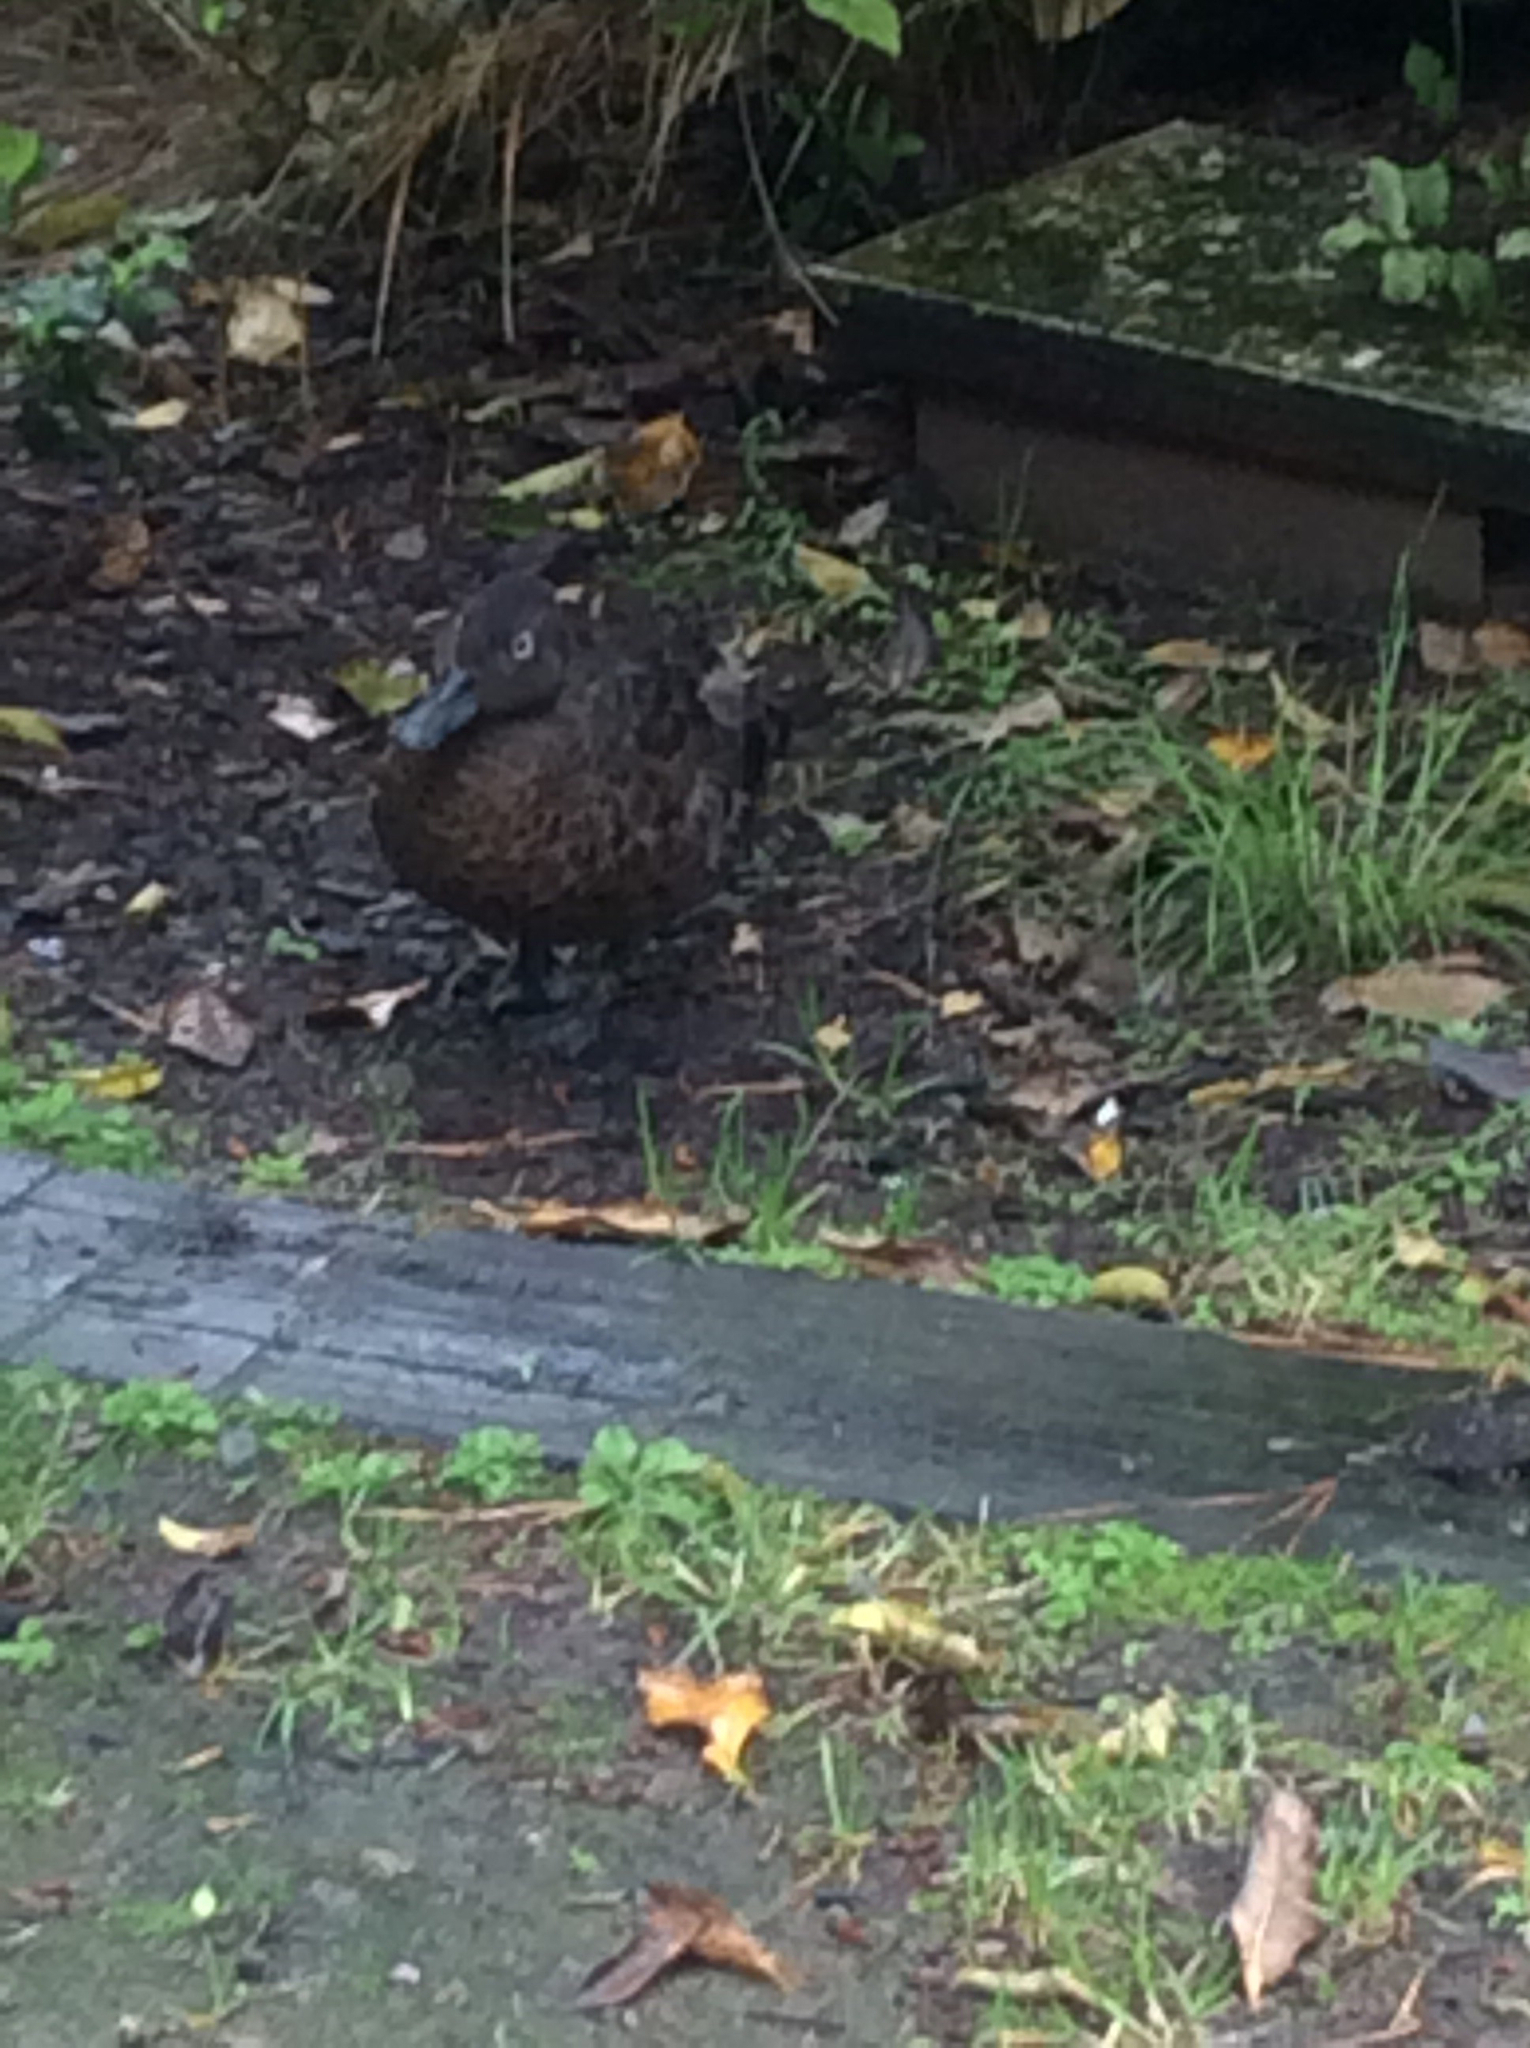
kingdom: Animalia
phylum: Chordata
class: Aves
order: Anseriformes
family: Anatidae
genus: Anas
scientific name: Anas chlorotis
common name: Brown teal
